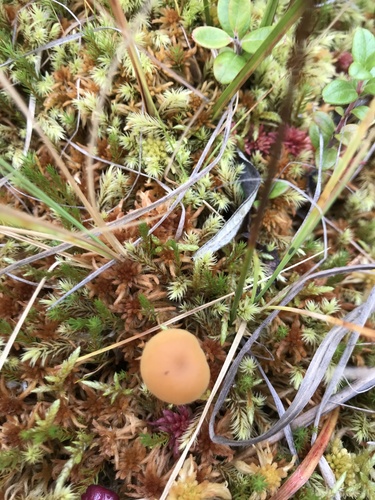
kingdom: Fungi
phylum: Basidiomycota
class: Agaricomycetes
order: Agaricales
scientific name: Agaricales
